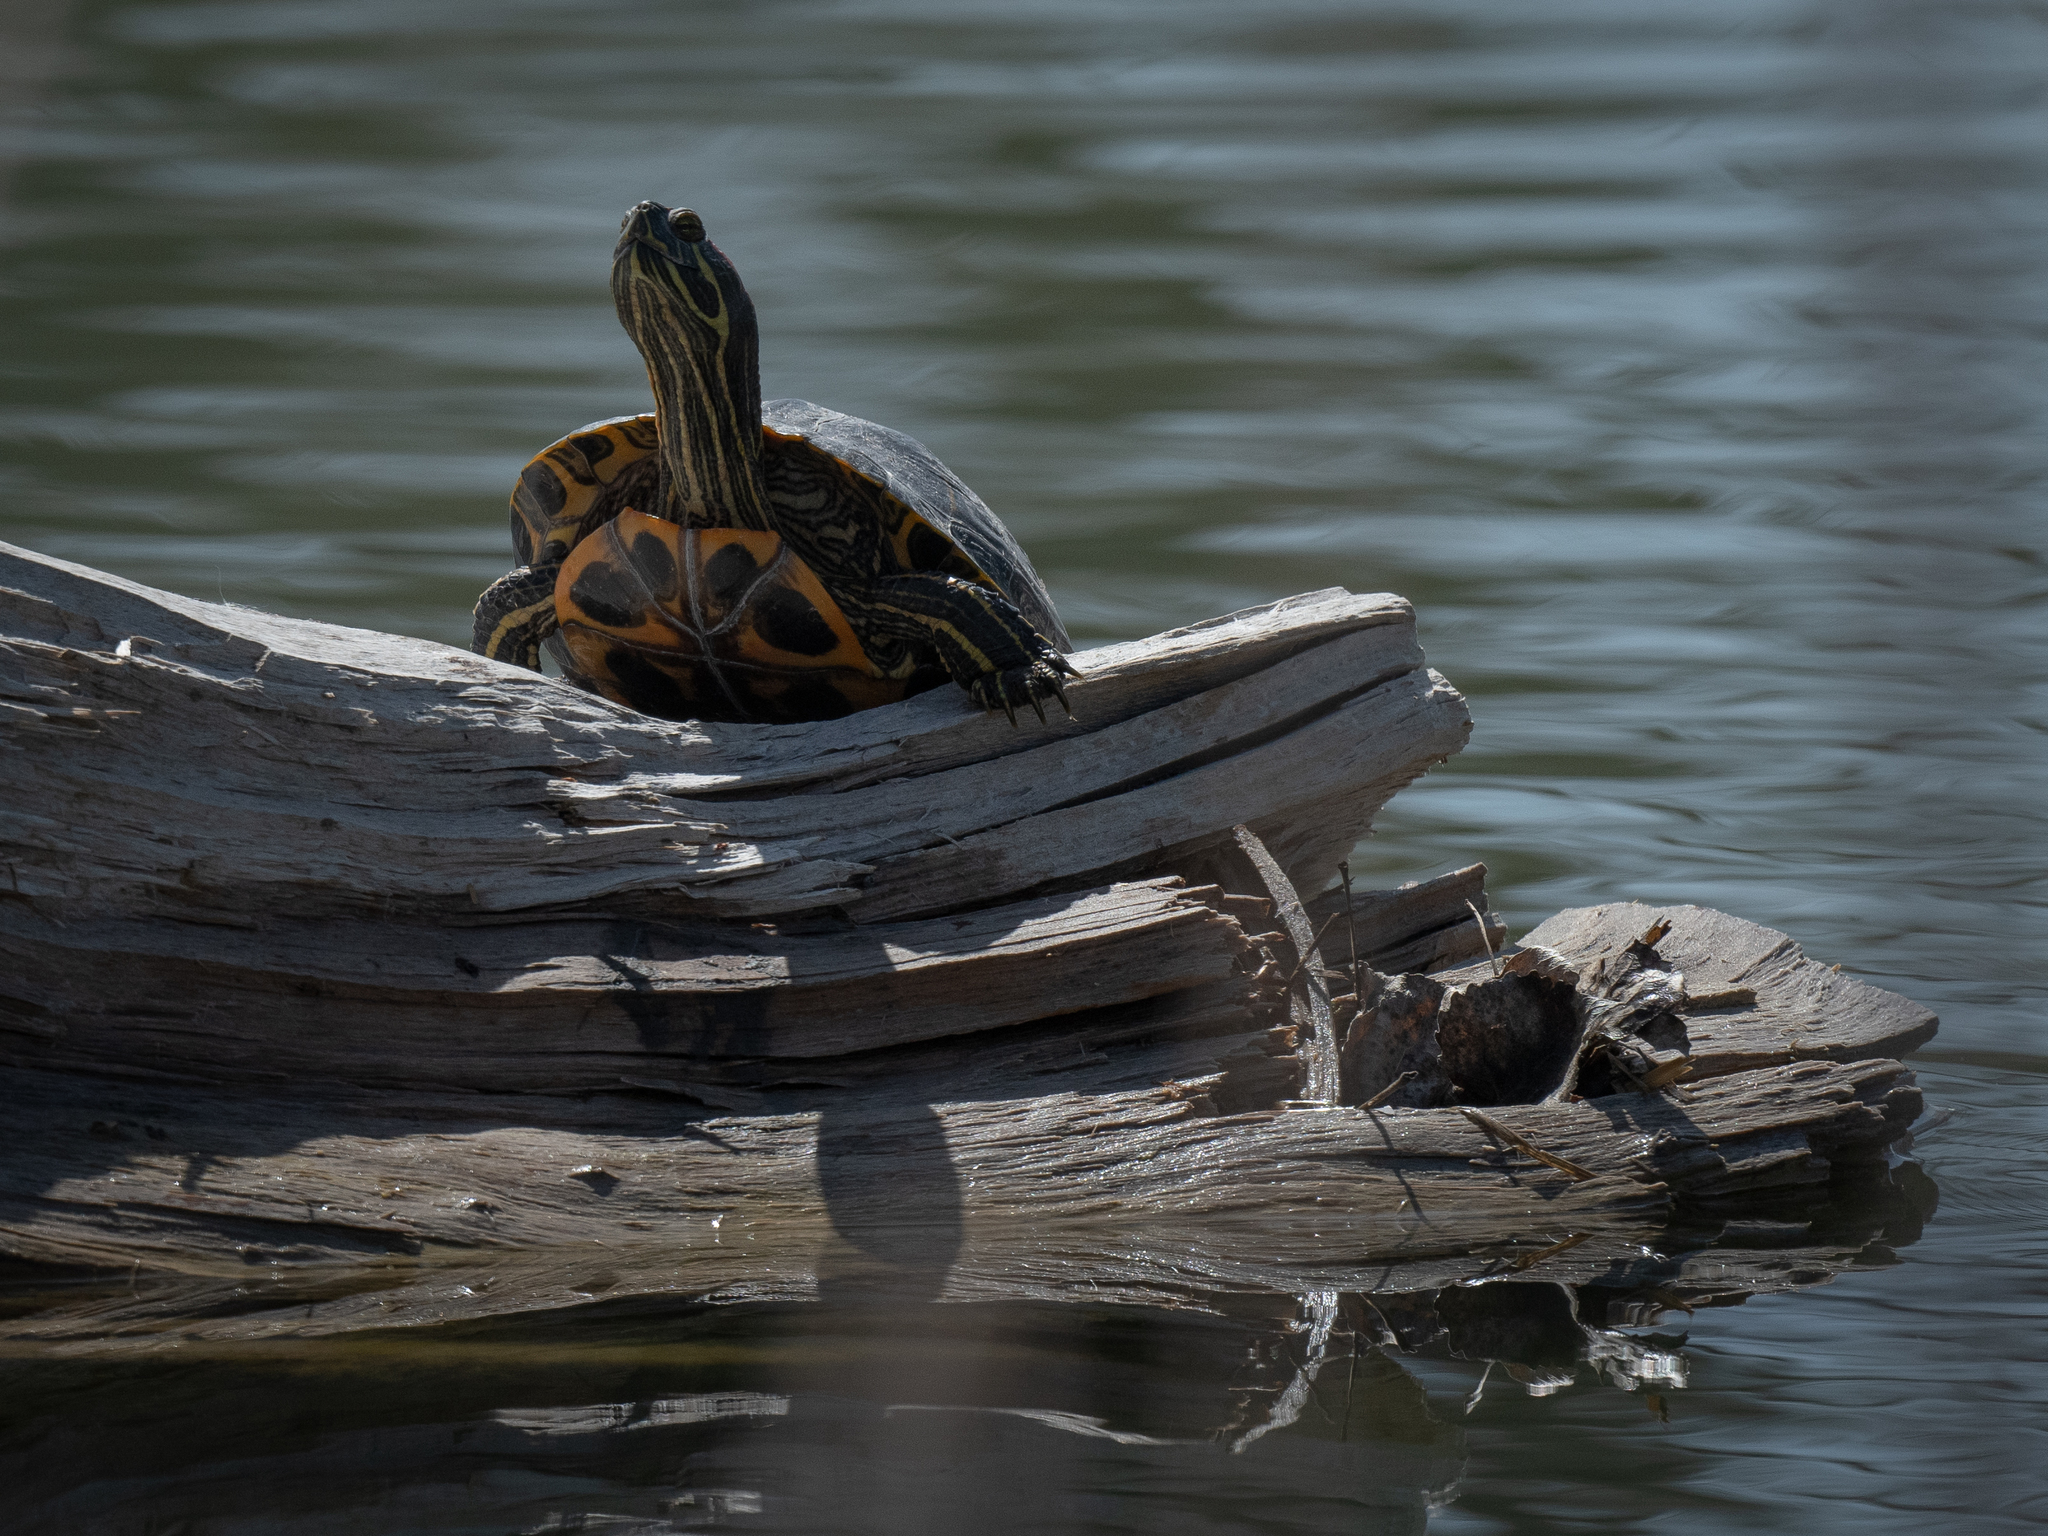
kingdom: Animalia
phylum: Chordata
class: Testudines
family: Emydidae
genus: Trachemys
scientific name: Trachemys scripta
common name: Slider
